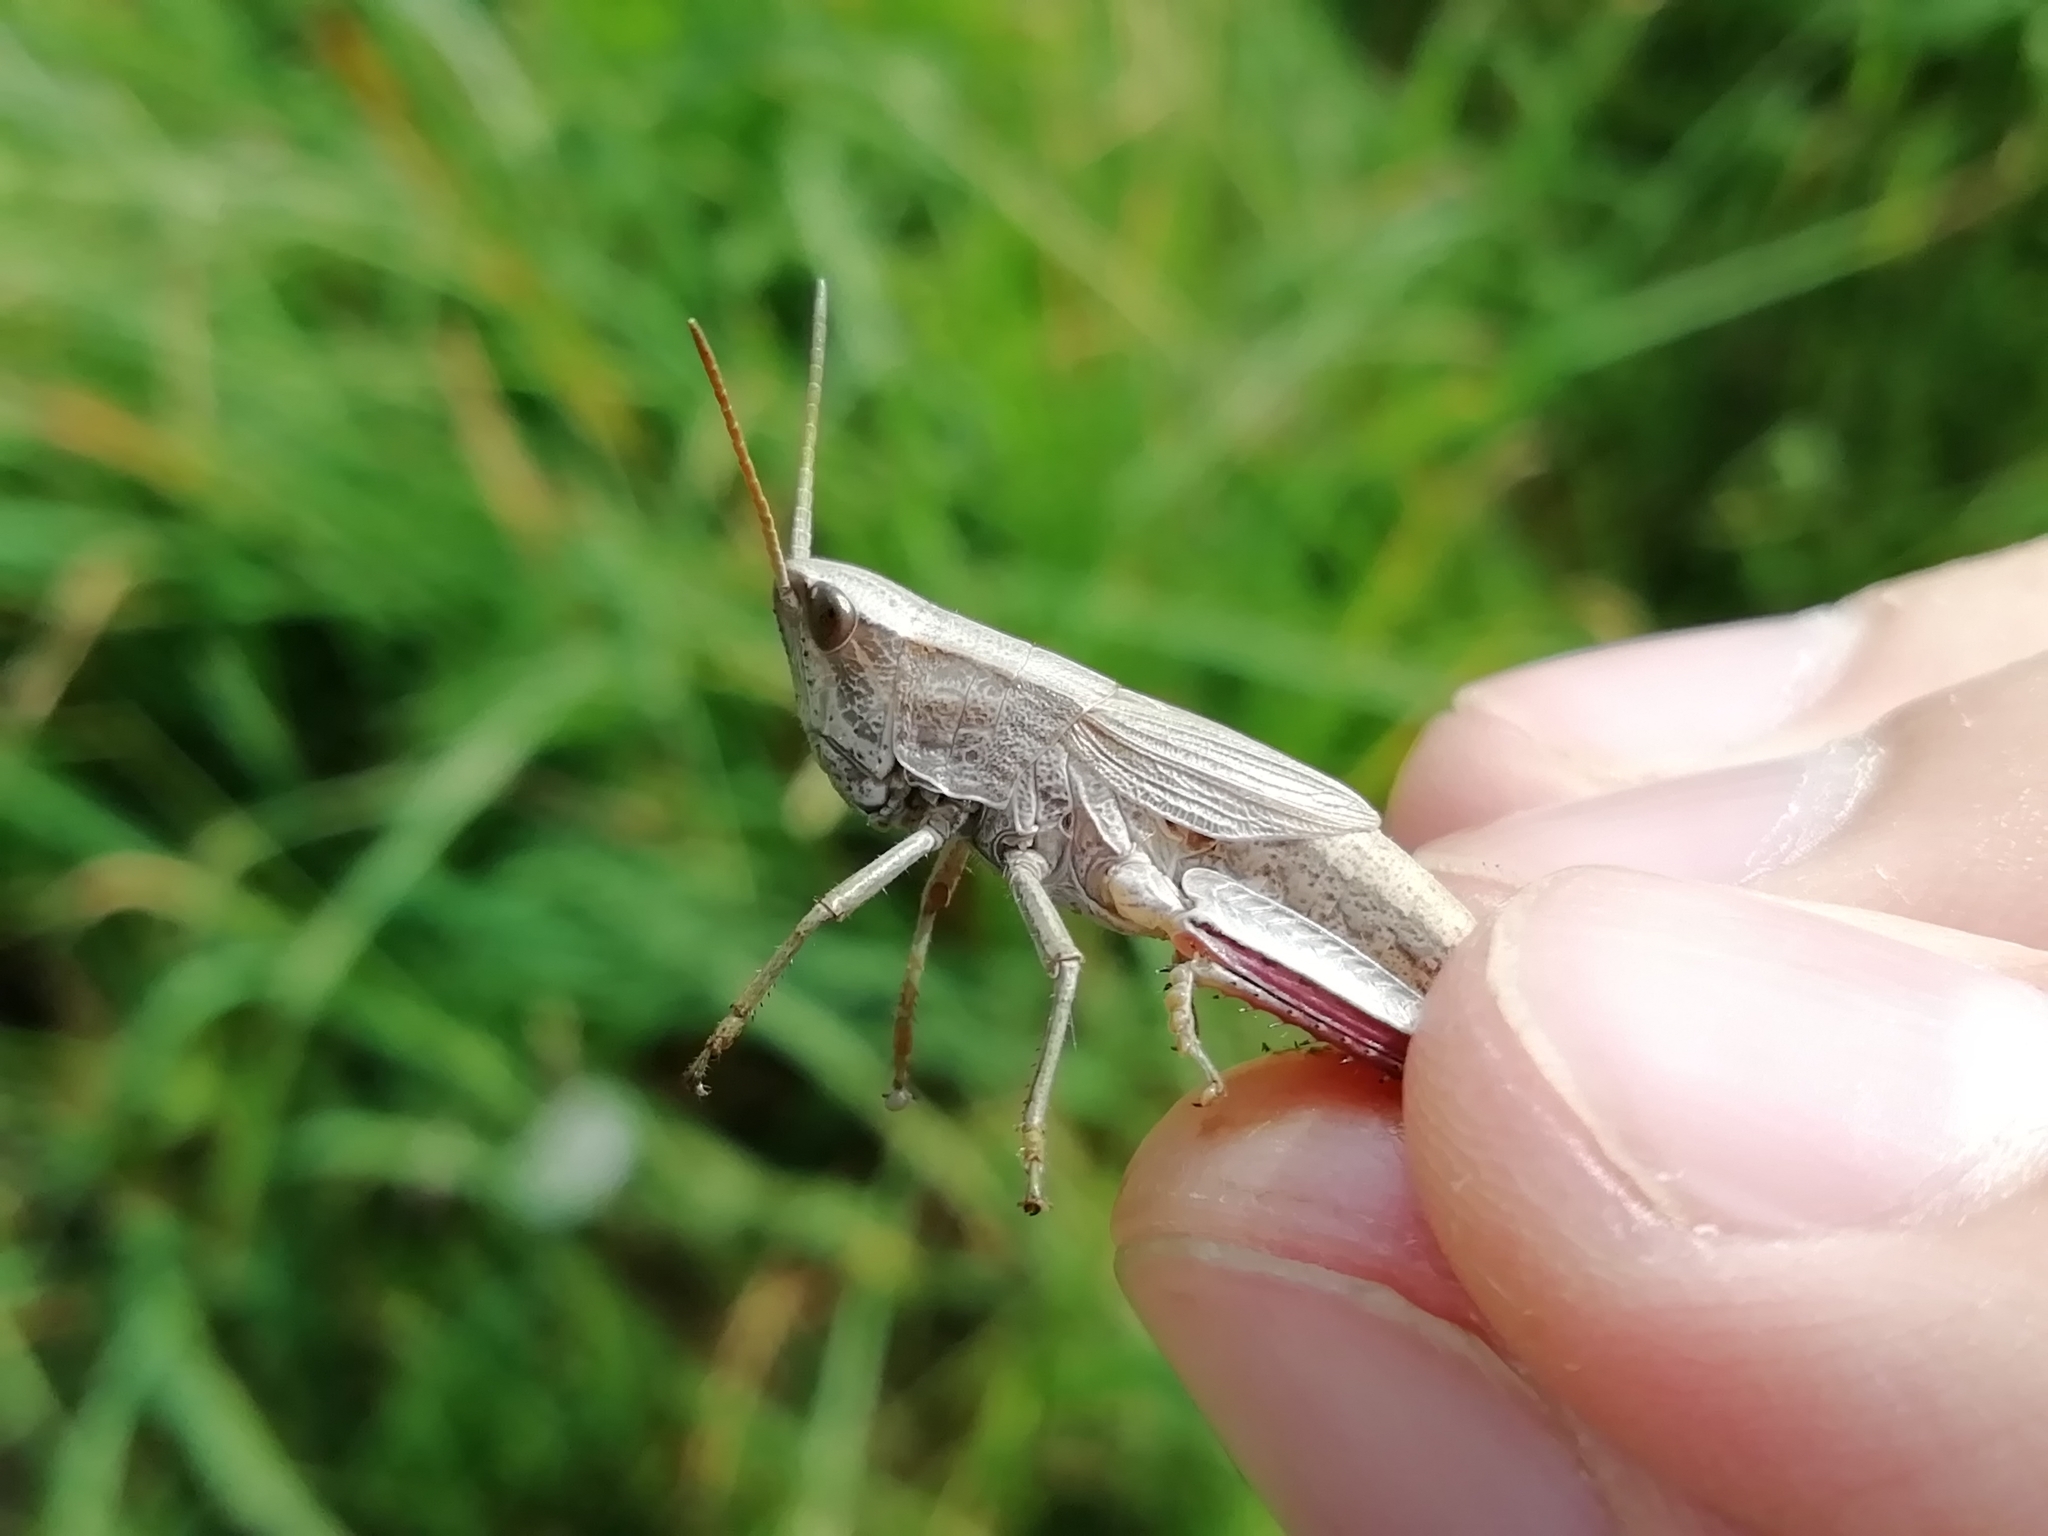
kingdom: Animalia
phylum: Arthropoda
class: Insecta
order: Orthoptera
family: Acrididae
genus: Chrysochraon
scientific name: Chrysochraon dispar
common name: Large gold grasshopper
